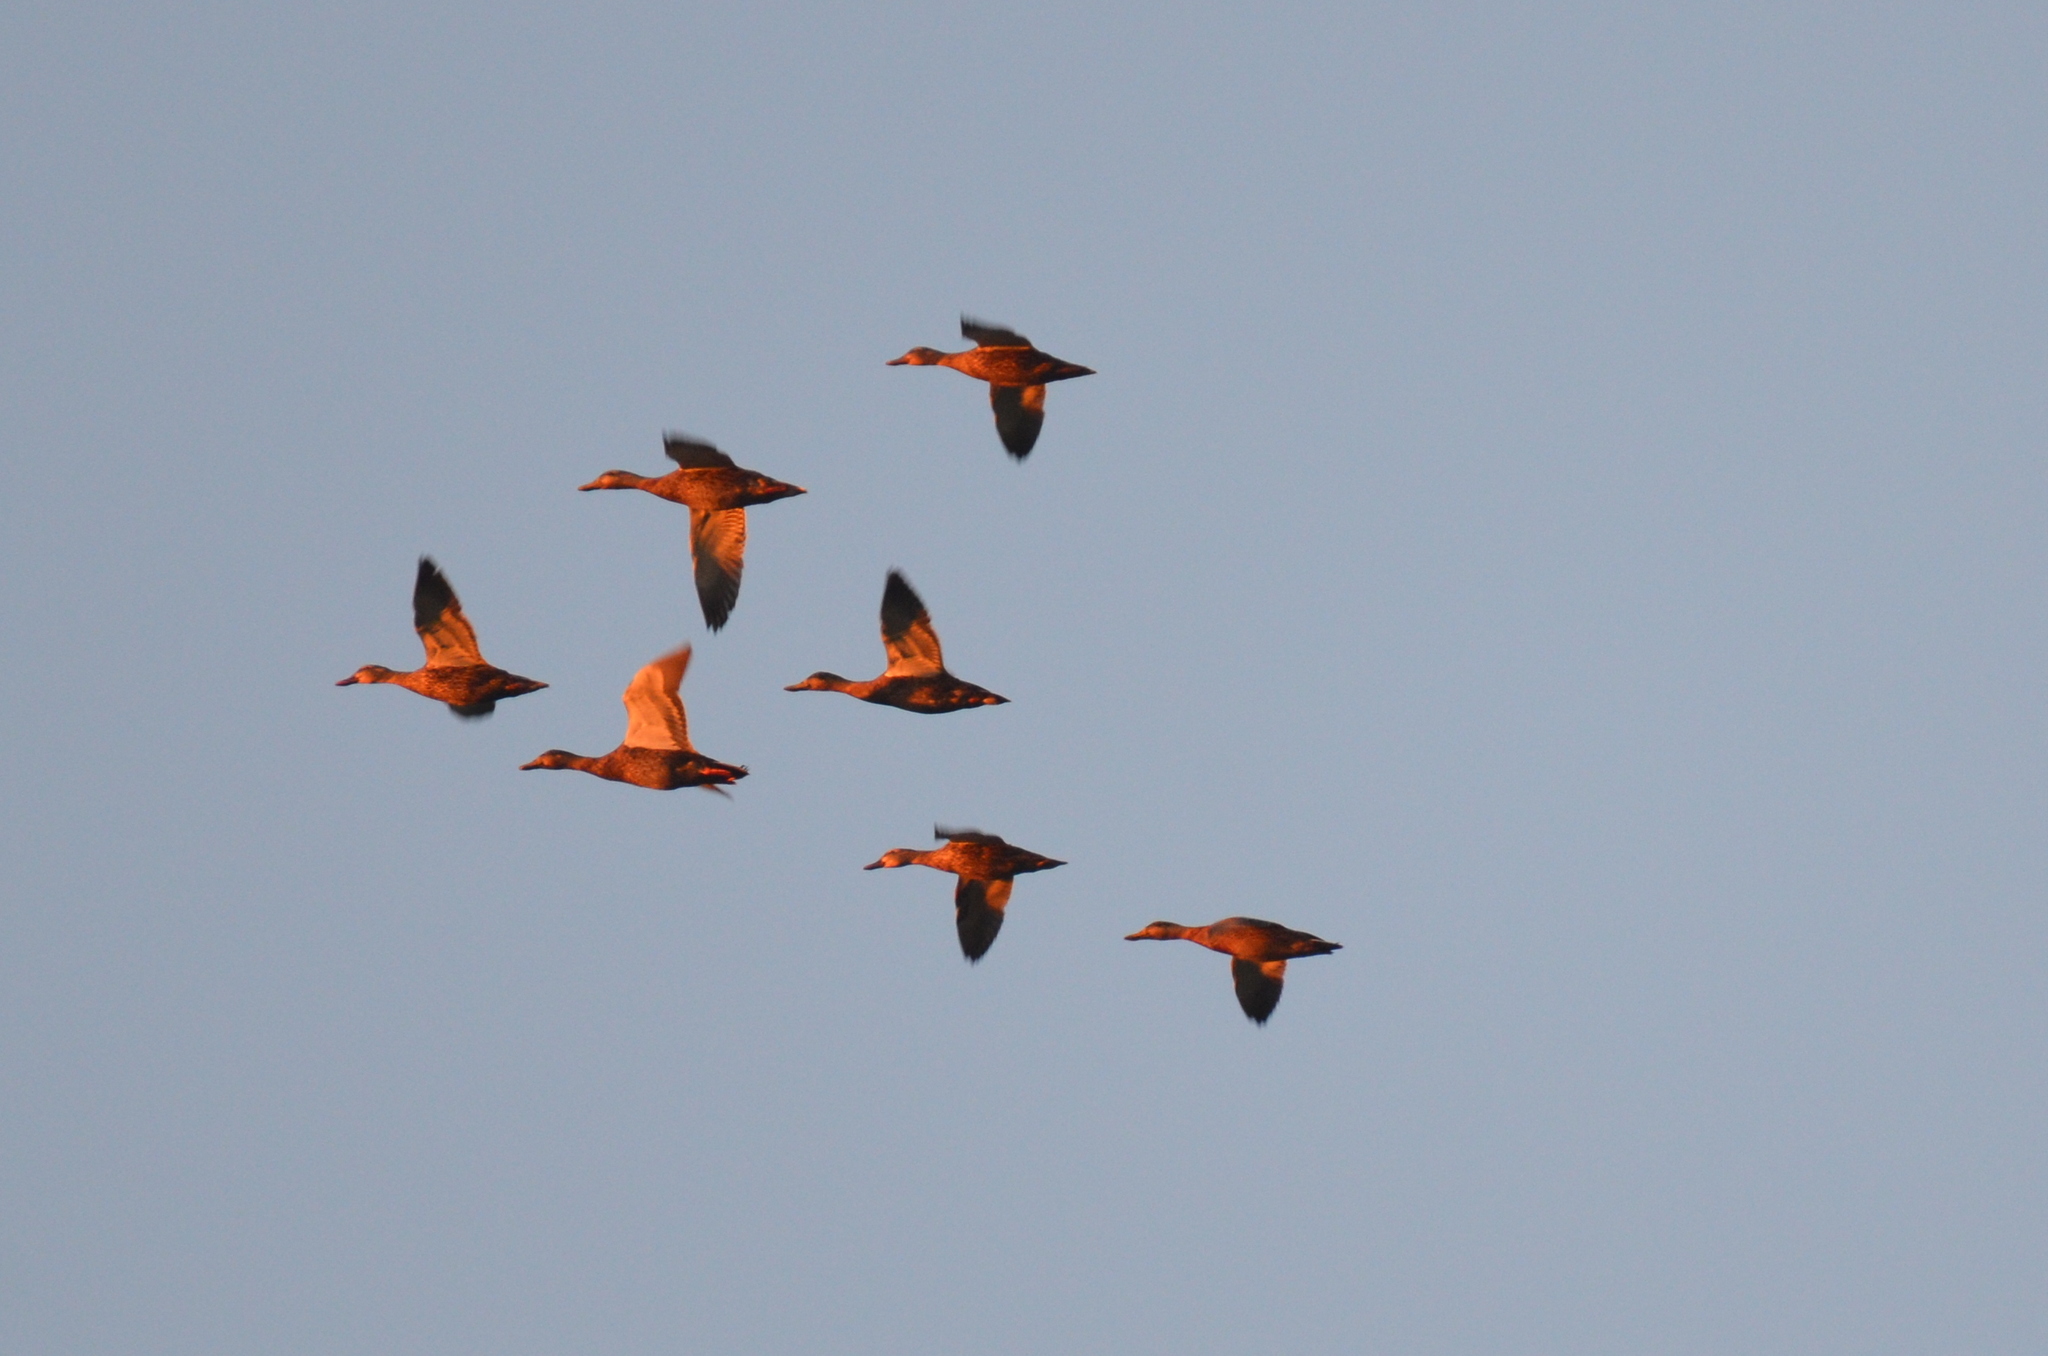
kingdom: Animalia
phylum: Chordata
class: Aves
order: Anseriformes
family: Anatidae
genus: Anas
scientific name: Anas platyrhynchos
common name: Mallard
